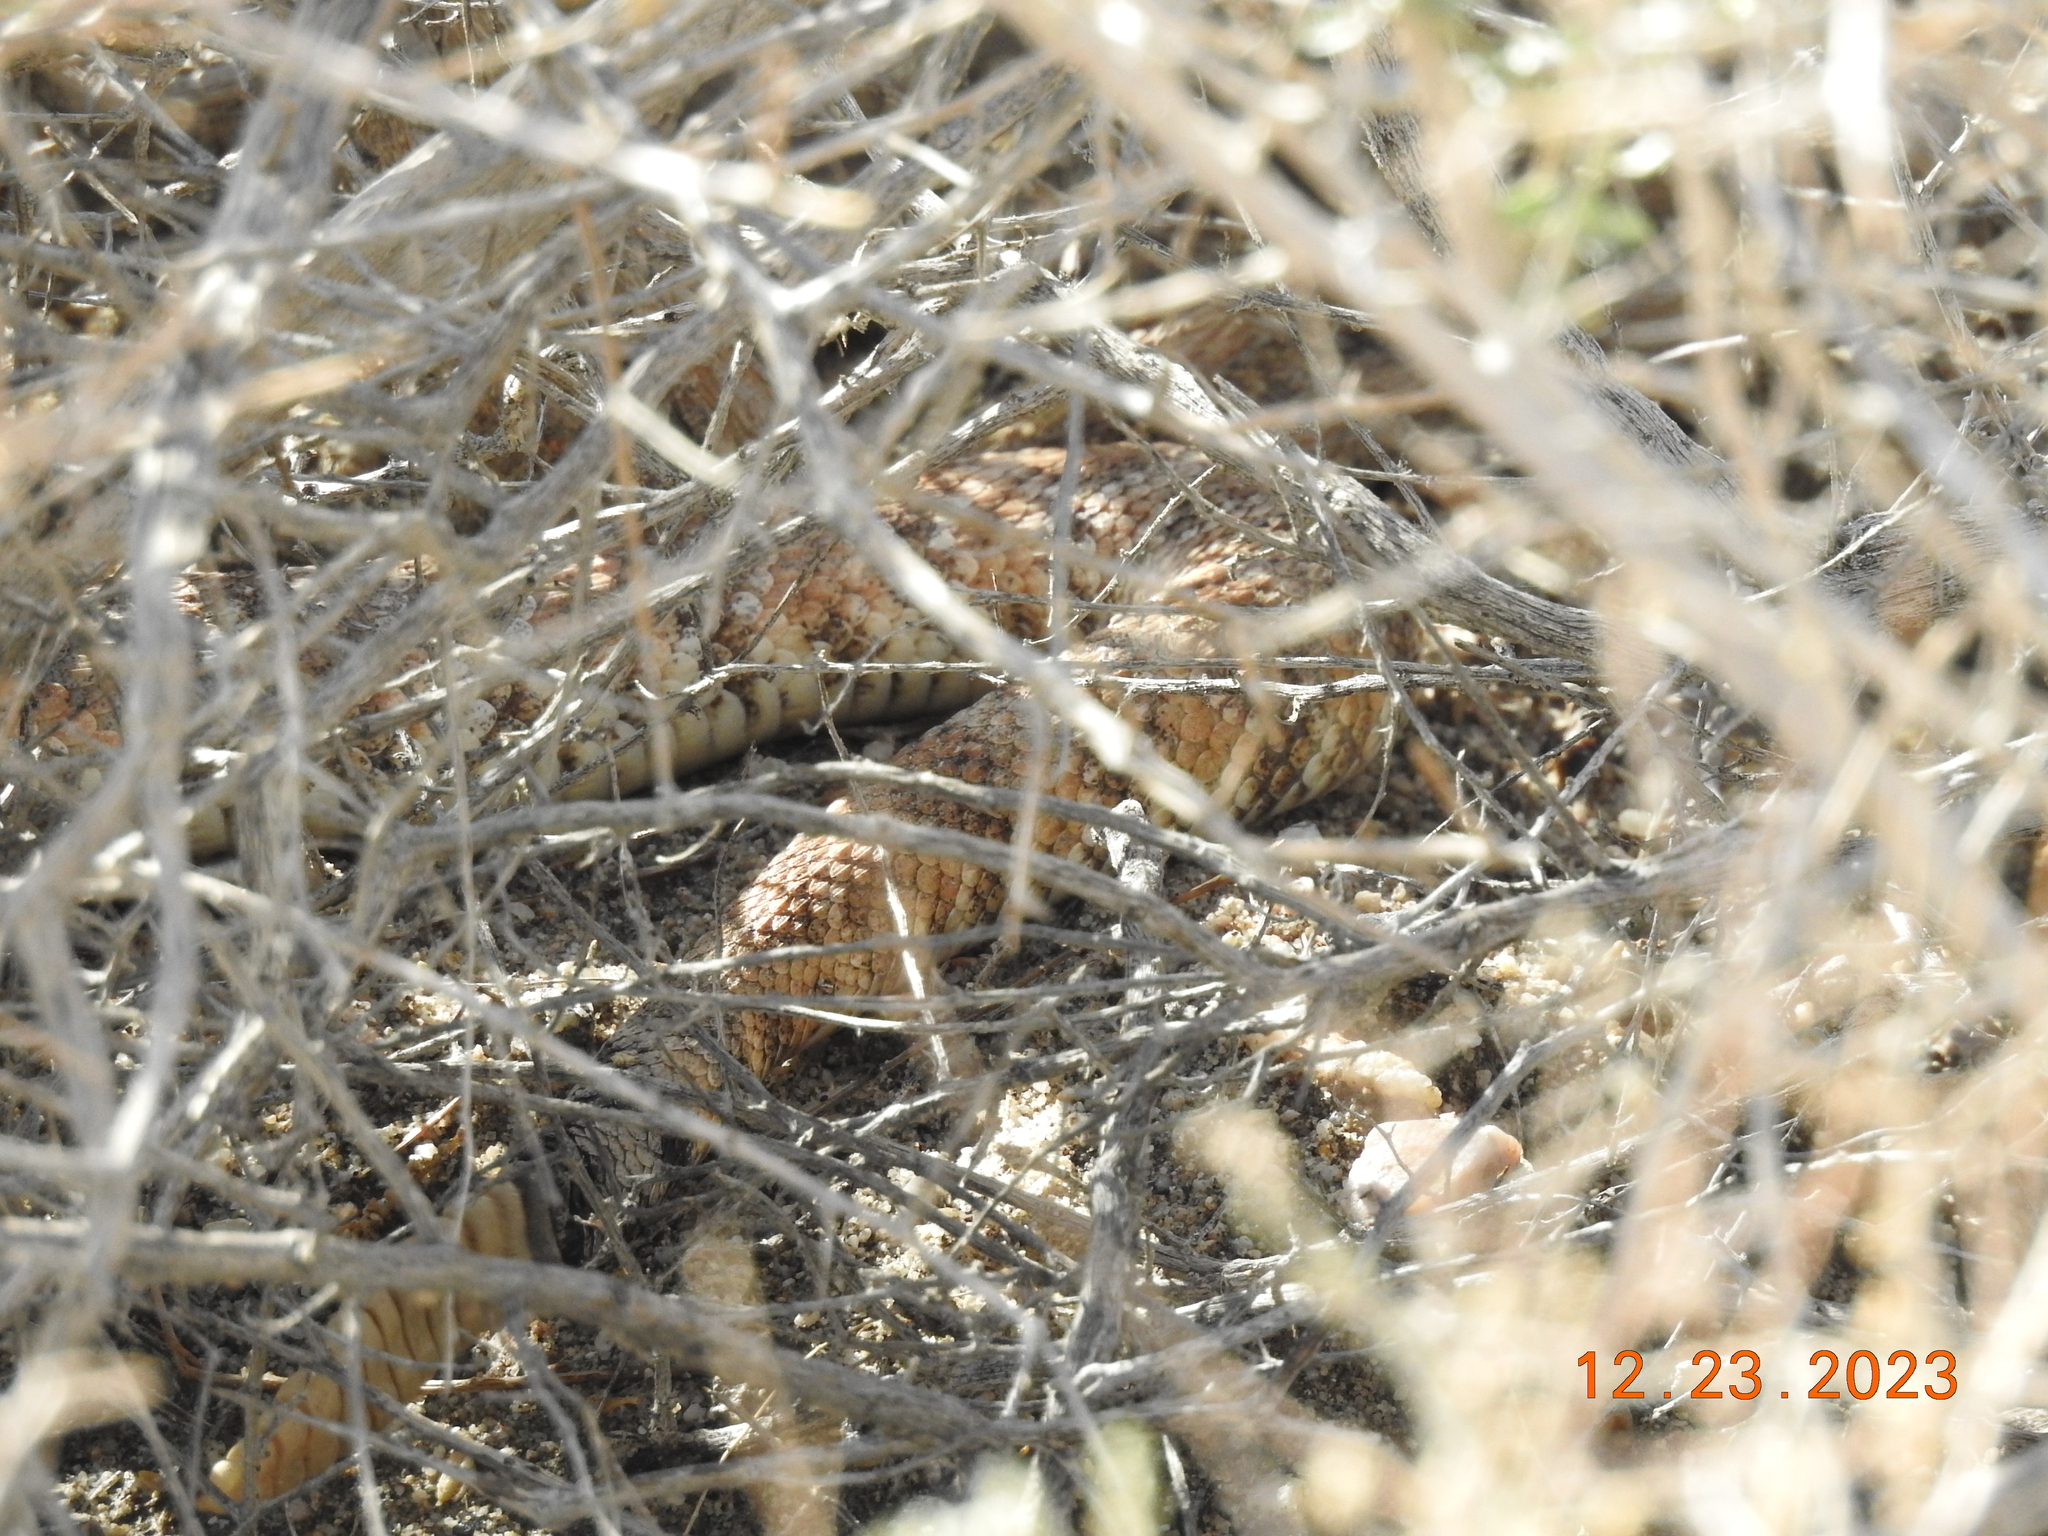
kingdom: Animalia
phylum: Chordata
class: Squamata
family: Viperidae
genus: Crotalus
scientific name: Crotalus pyrrhus
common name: Southwestern speckled rattlesnake
